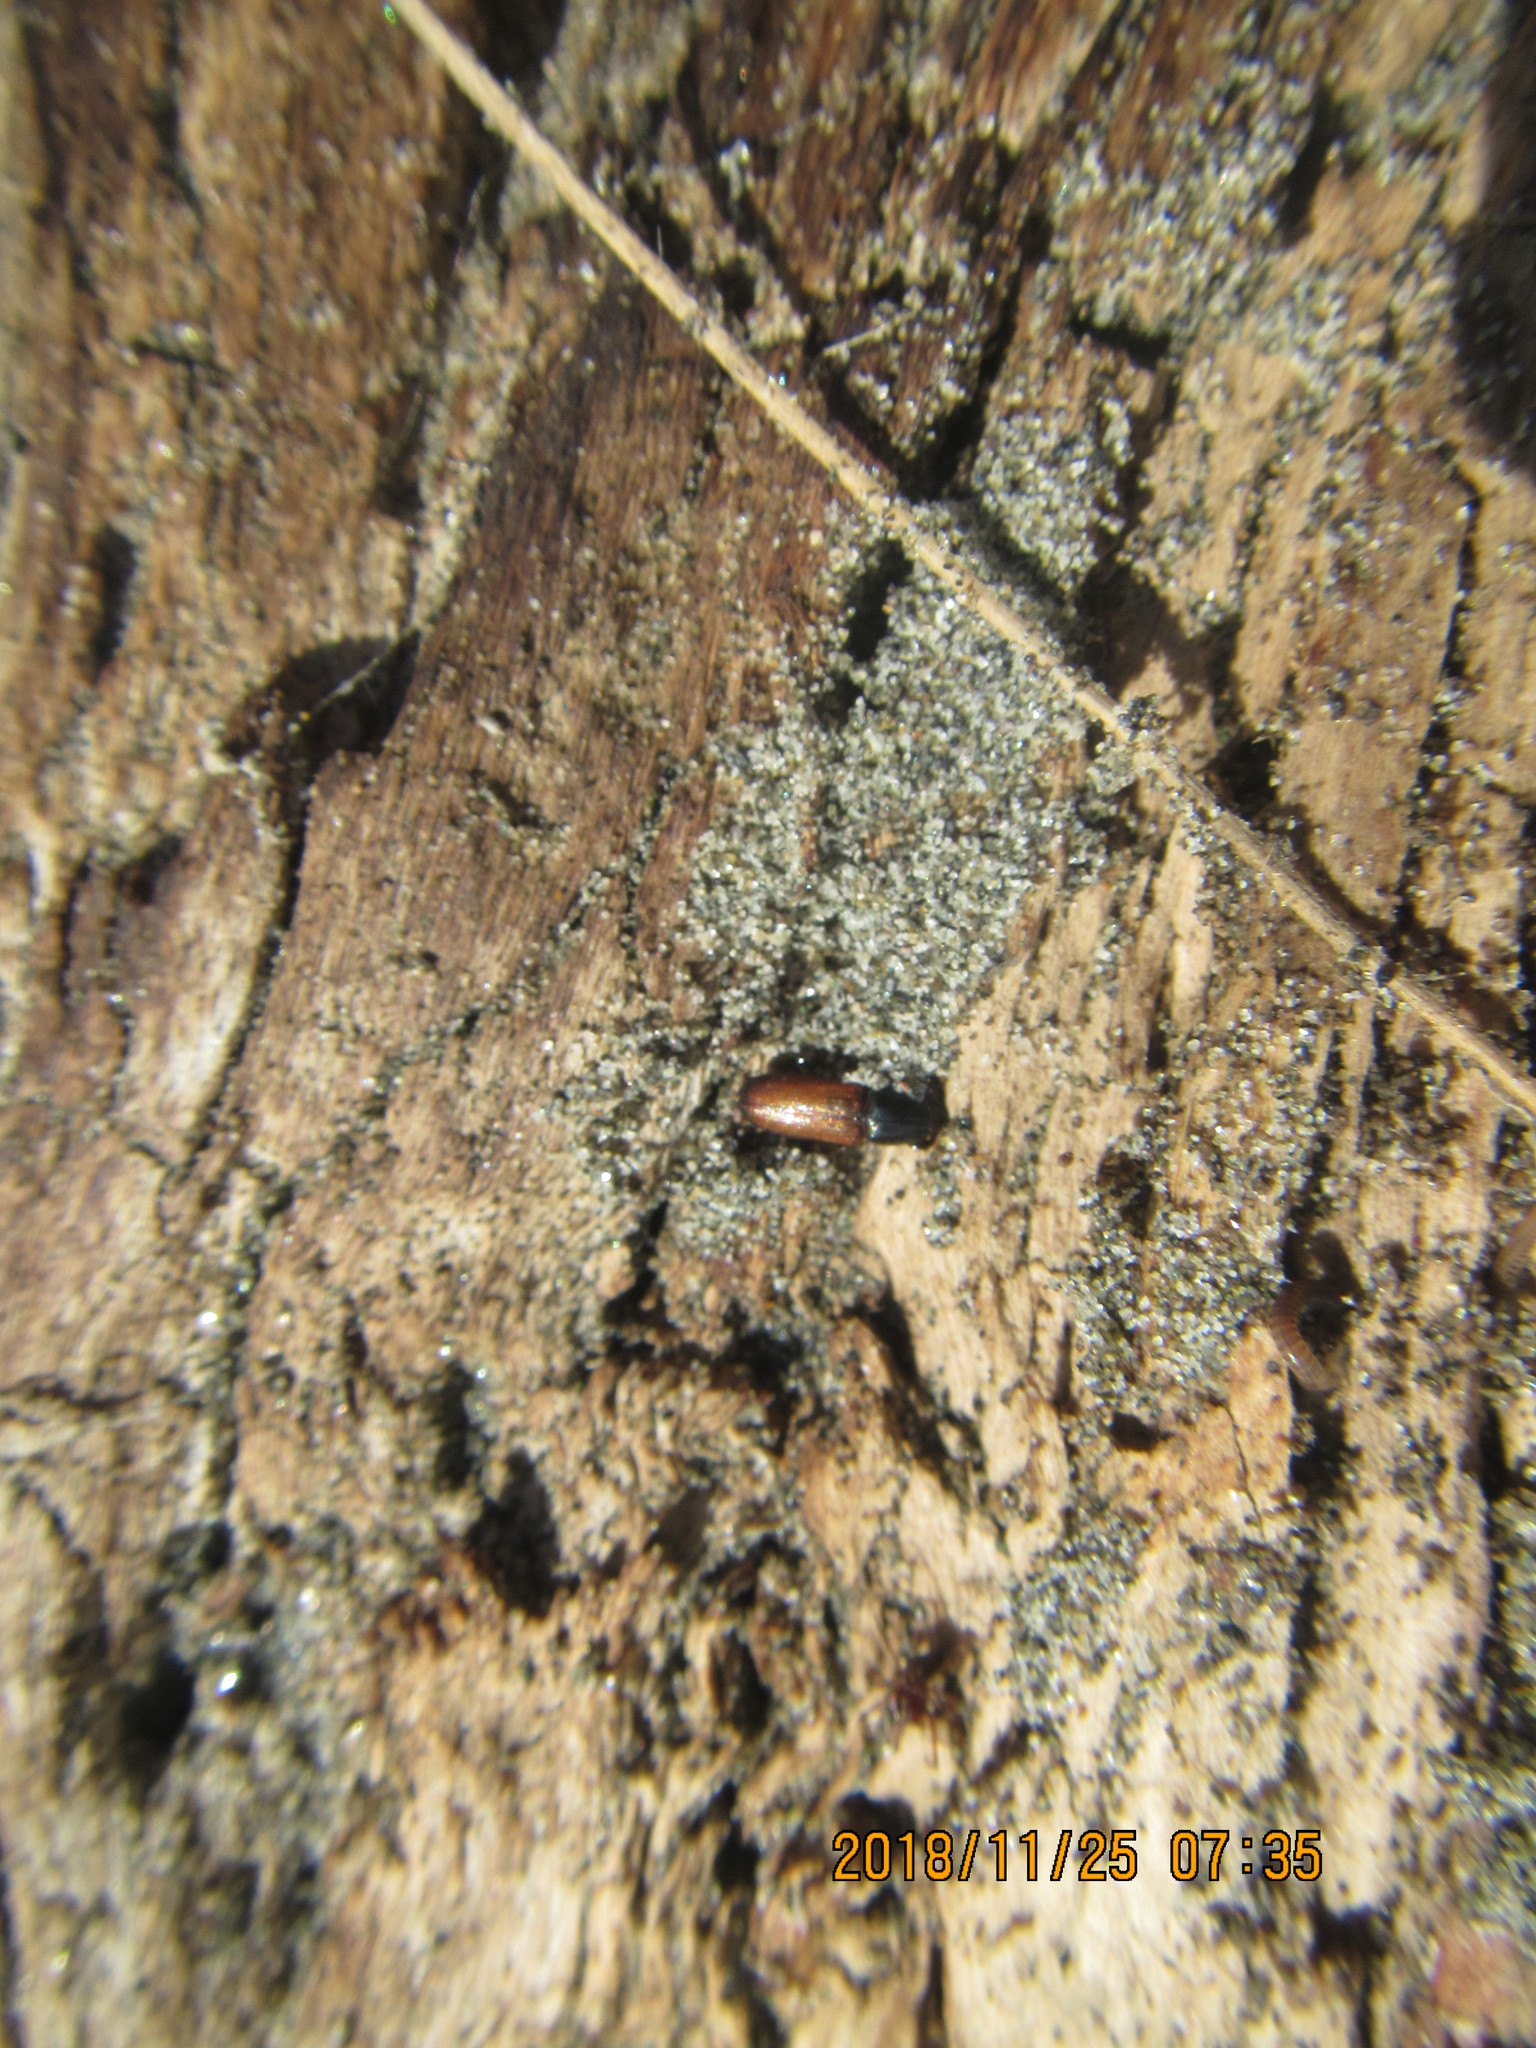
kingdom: Animalia
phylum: Arthropoda
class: Insecta
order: Coleoptera
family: Curculionidae
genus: Mesites
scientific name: Mesites pallidipennis
